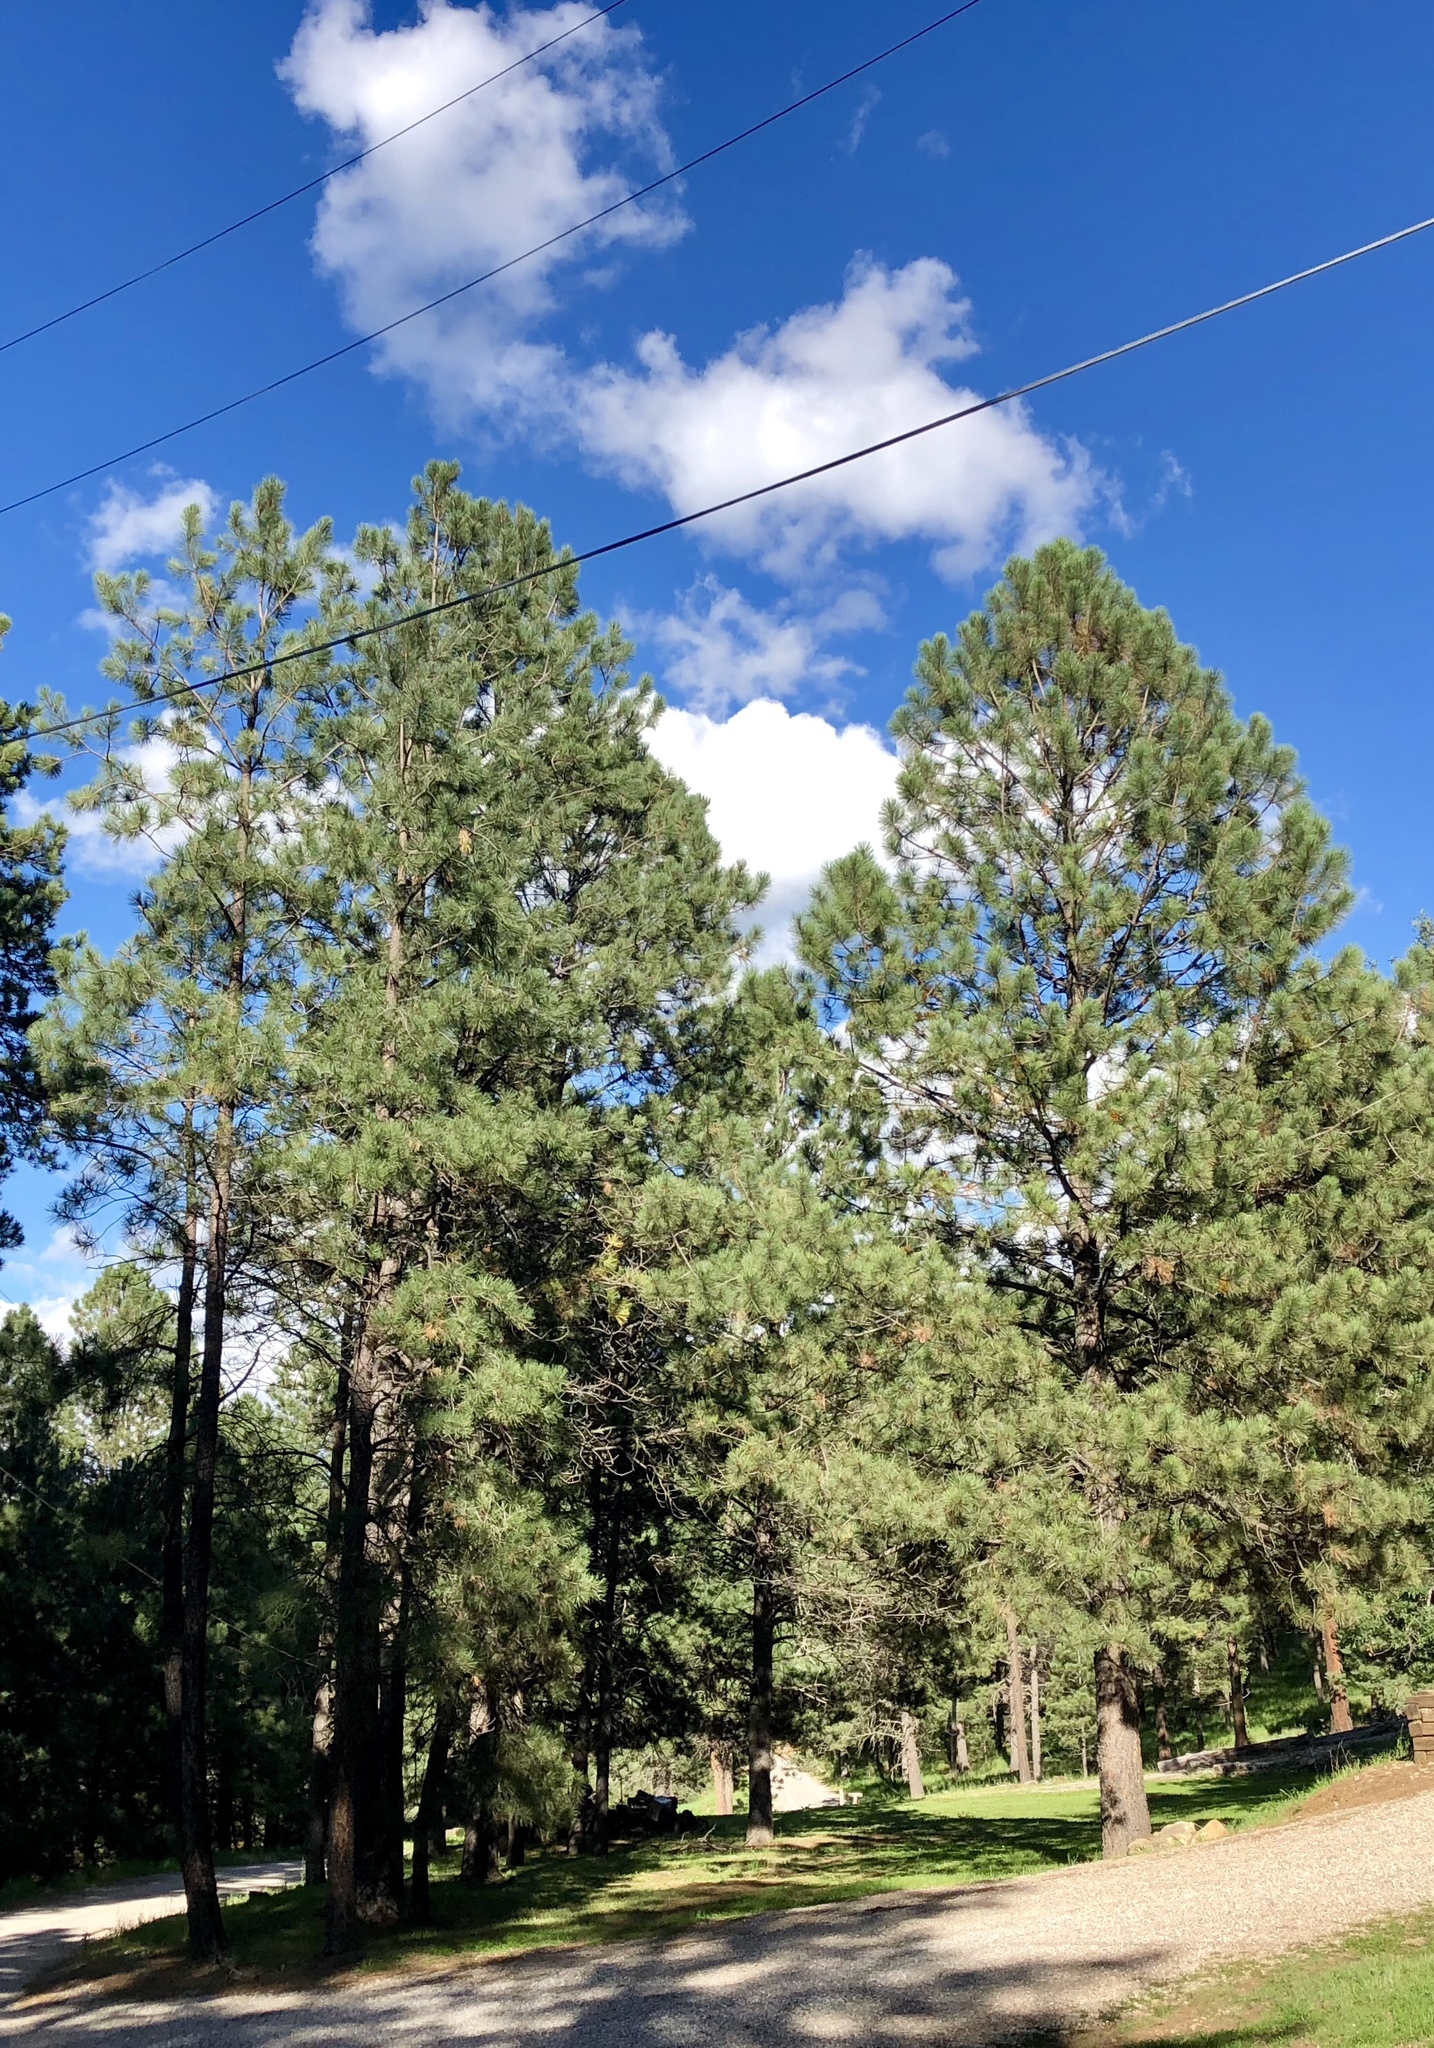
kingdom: Plantae
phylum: Tracheophyta
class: Pinopsida
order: Pinales
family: Pinaceae
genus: Pinus
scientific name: Pinus ponderosa
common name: Western yellow-pine
